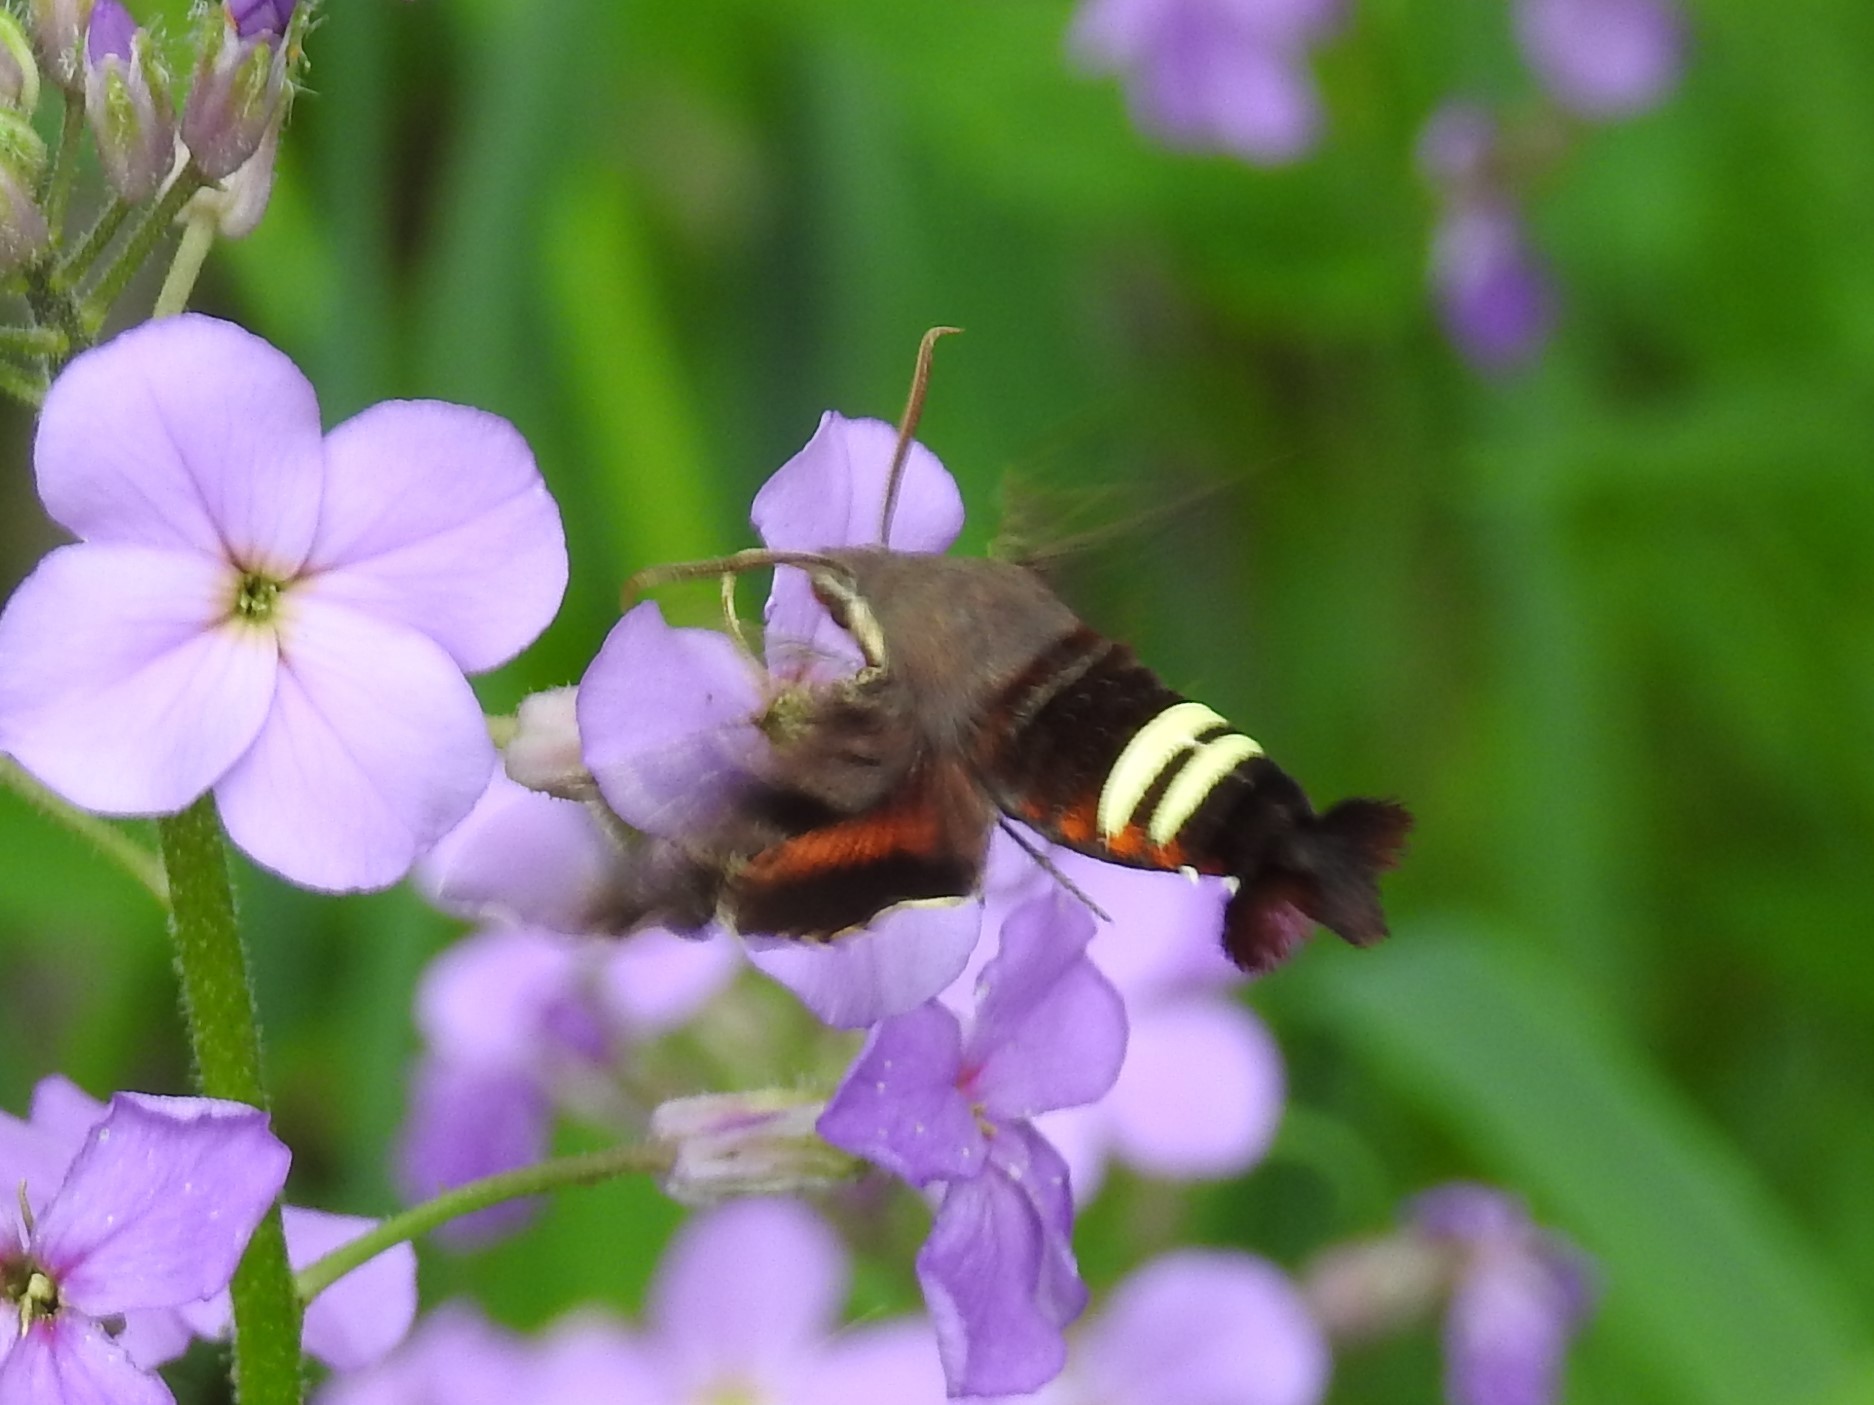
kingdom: Animalia
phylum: Arthropoda
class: Insecta
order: Lepidoptera
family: Sphingidae
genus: Amphion
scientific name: Amphion floridensis
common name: Nessus sphinx
